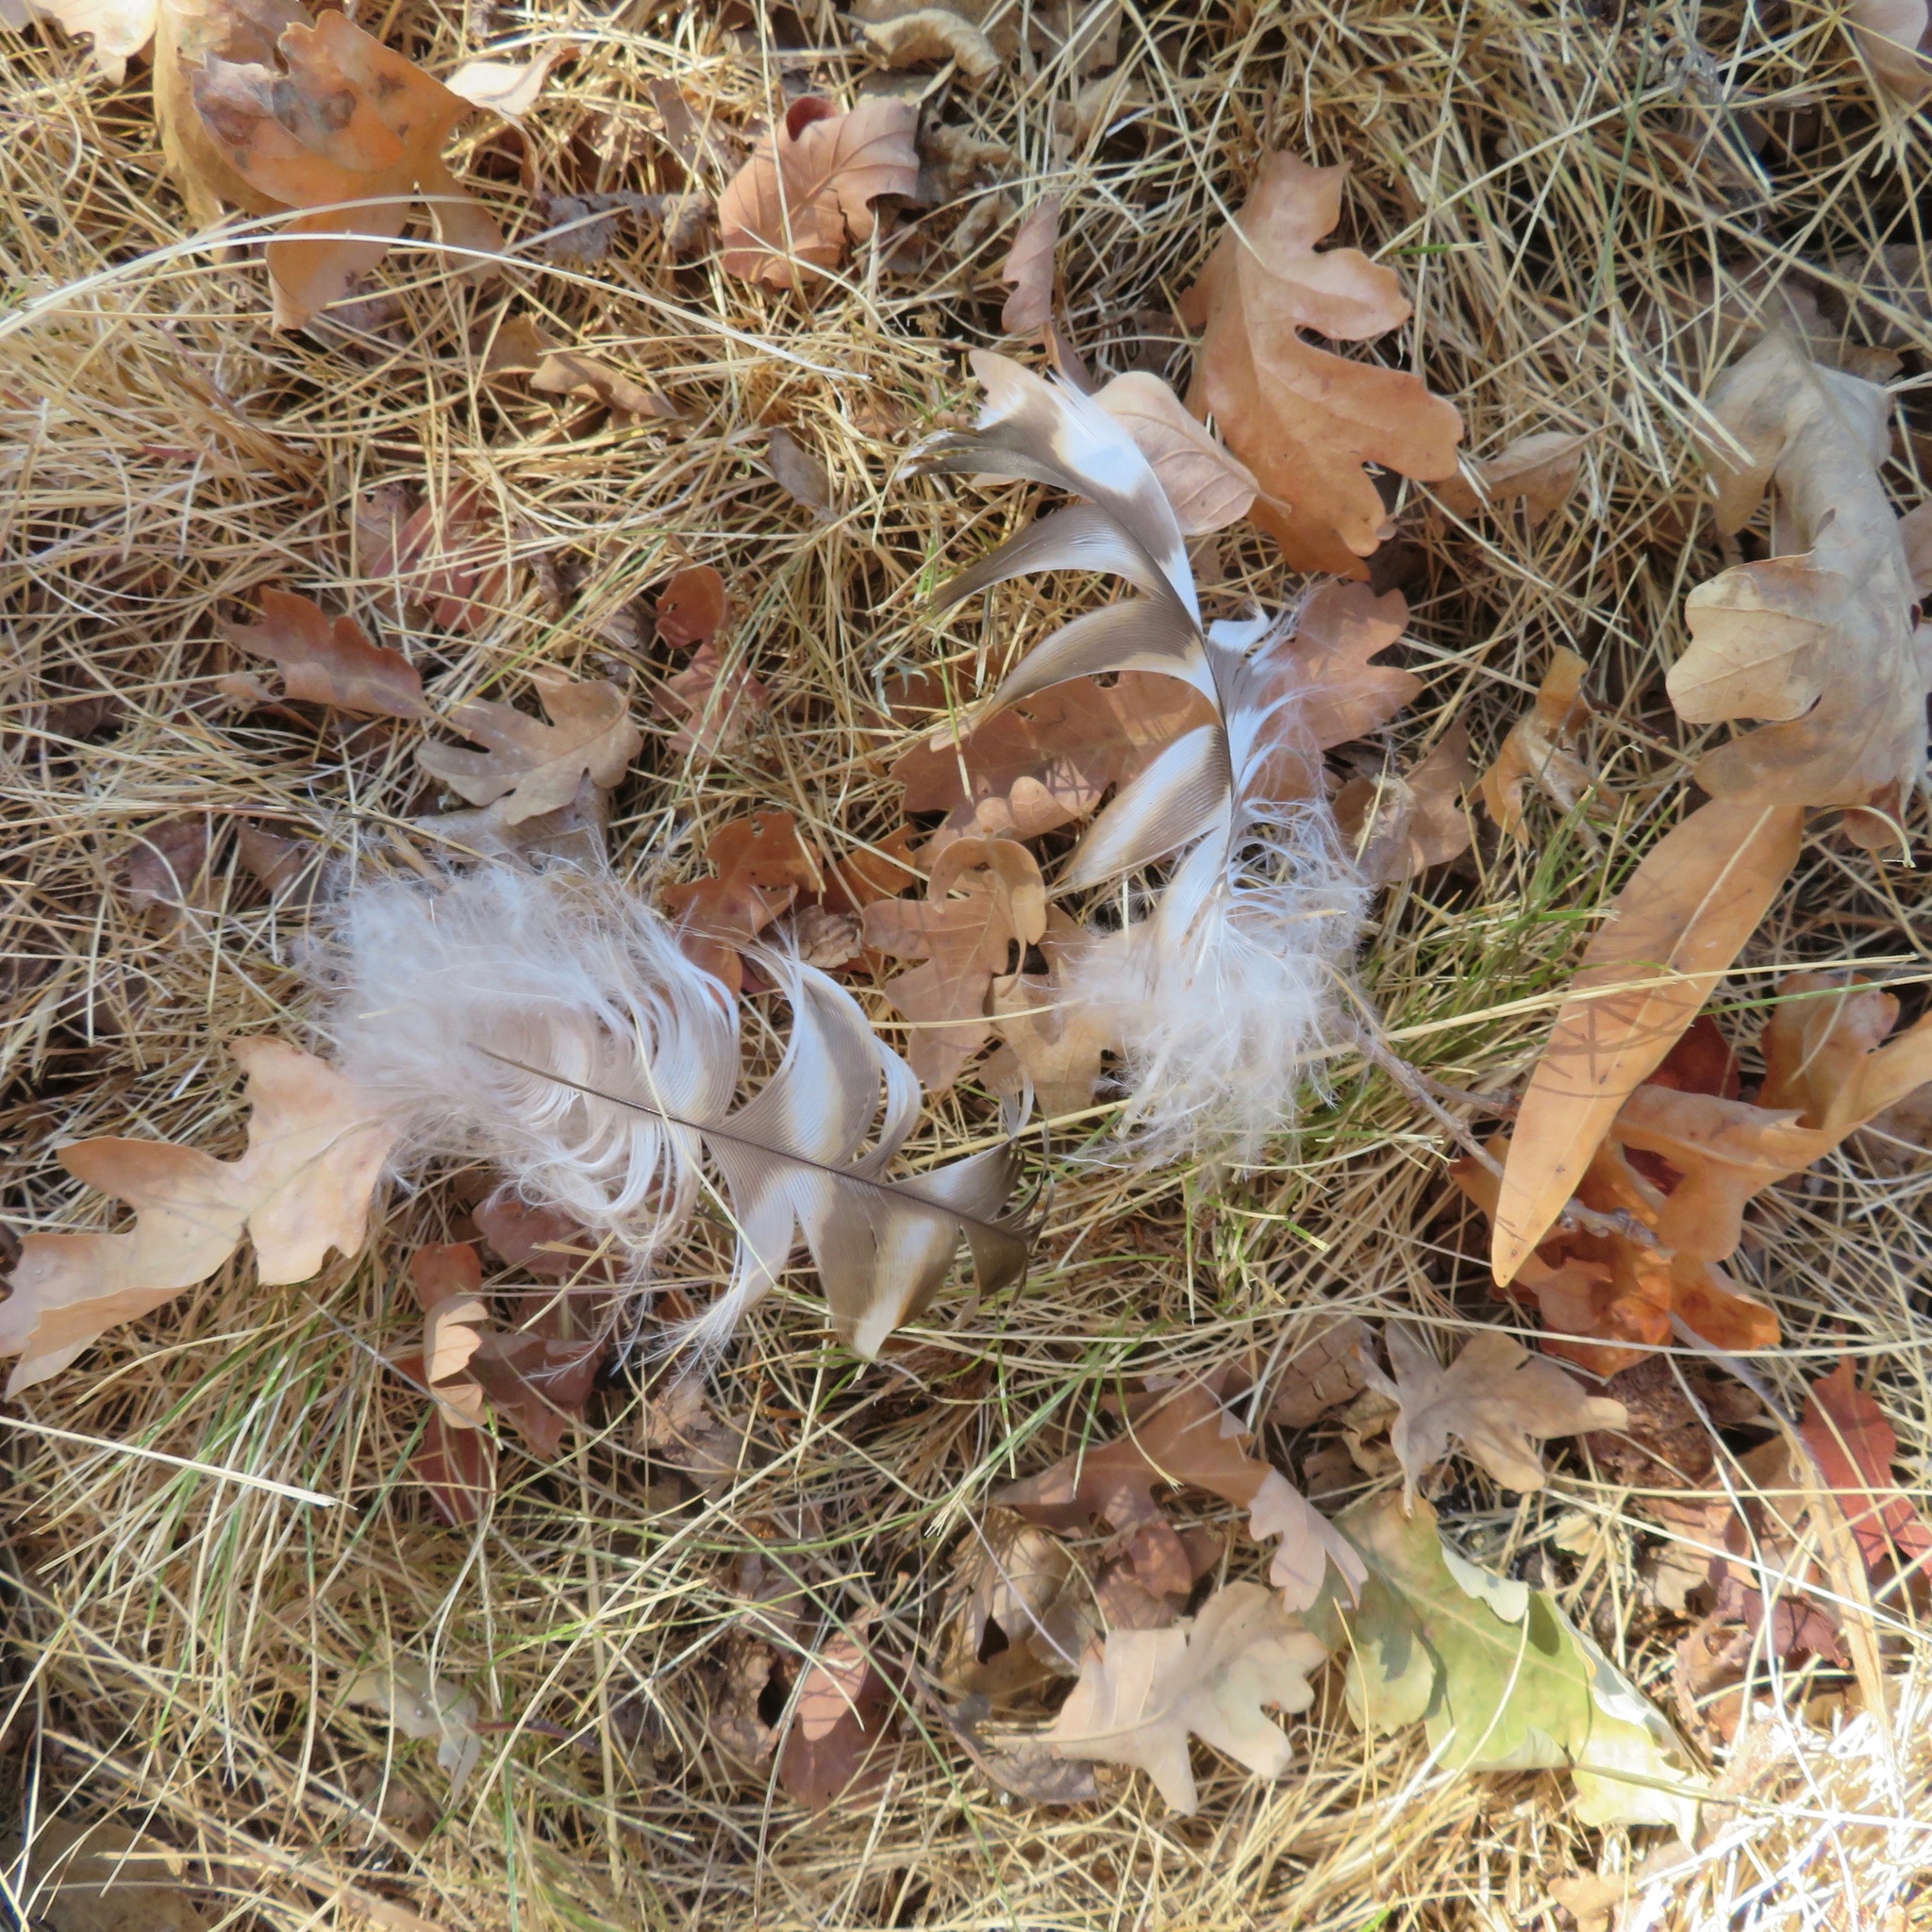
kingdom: Animalia
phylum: Chordata
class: Aves
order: Accipitriformes
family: Accipitridae
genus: Buteo
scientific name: Buteo lineatus
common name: Red-shouldered hawk
